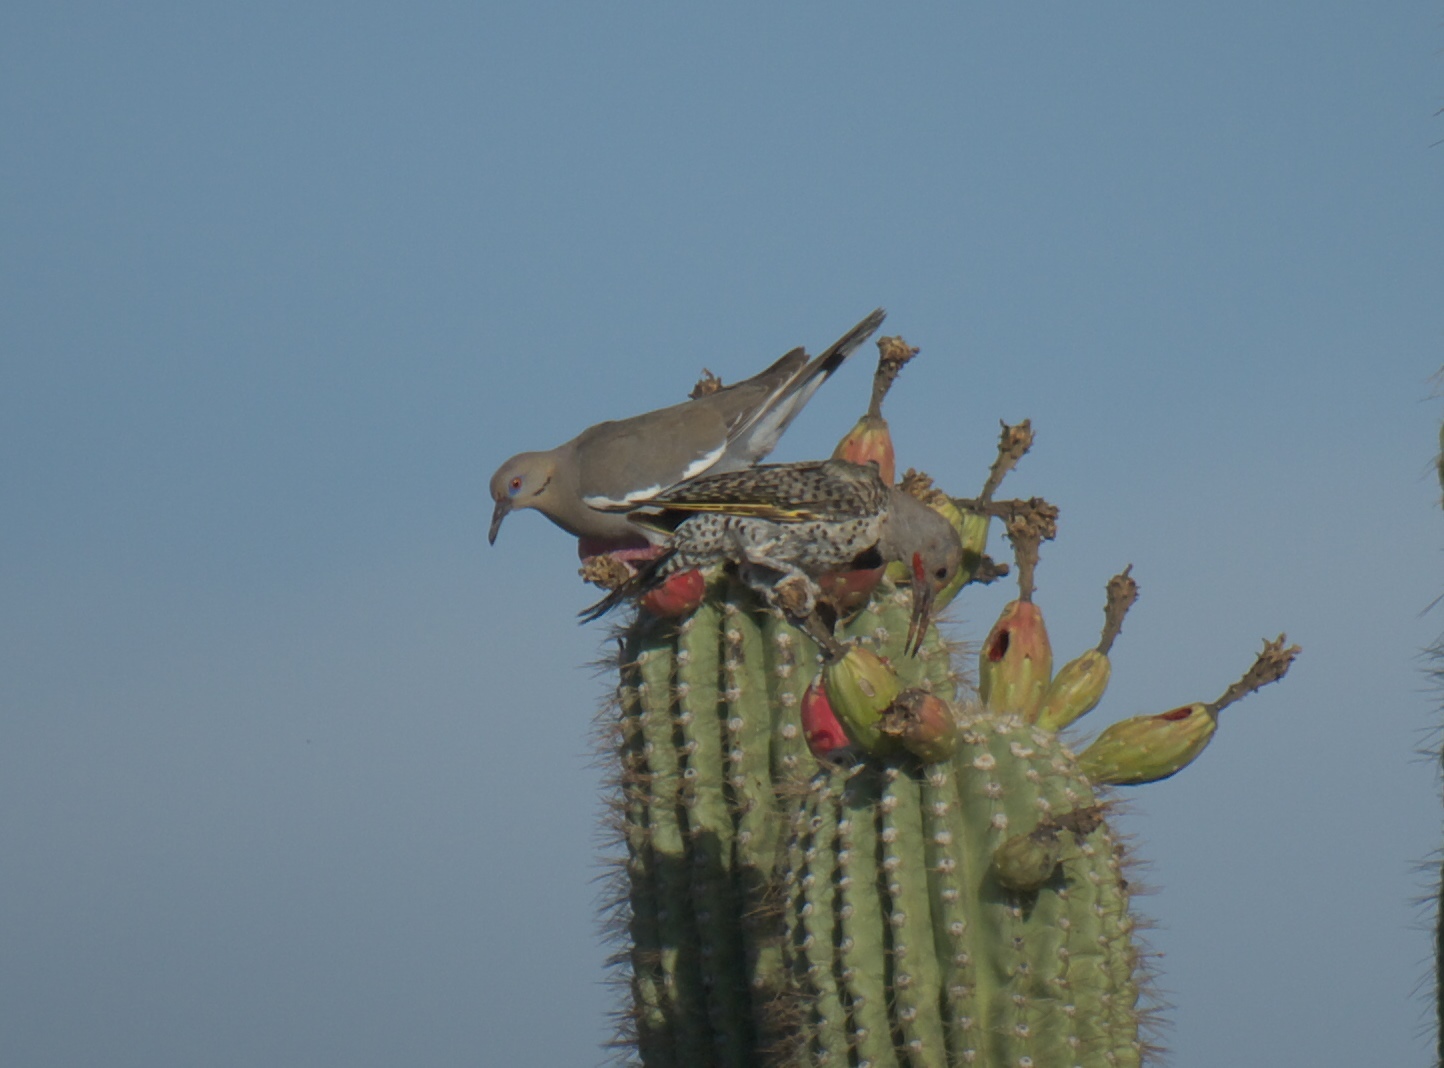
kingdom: Animalia
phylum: Chordata
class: Aves
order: Columbiformes
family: Columbidae
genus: Zenaida
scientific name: Zenaida asiatica
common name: White-winged dove
